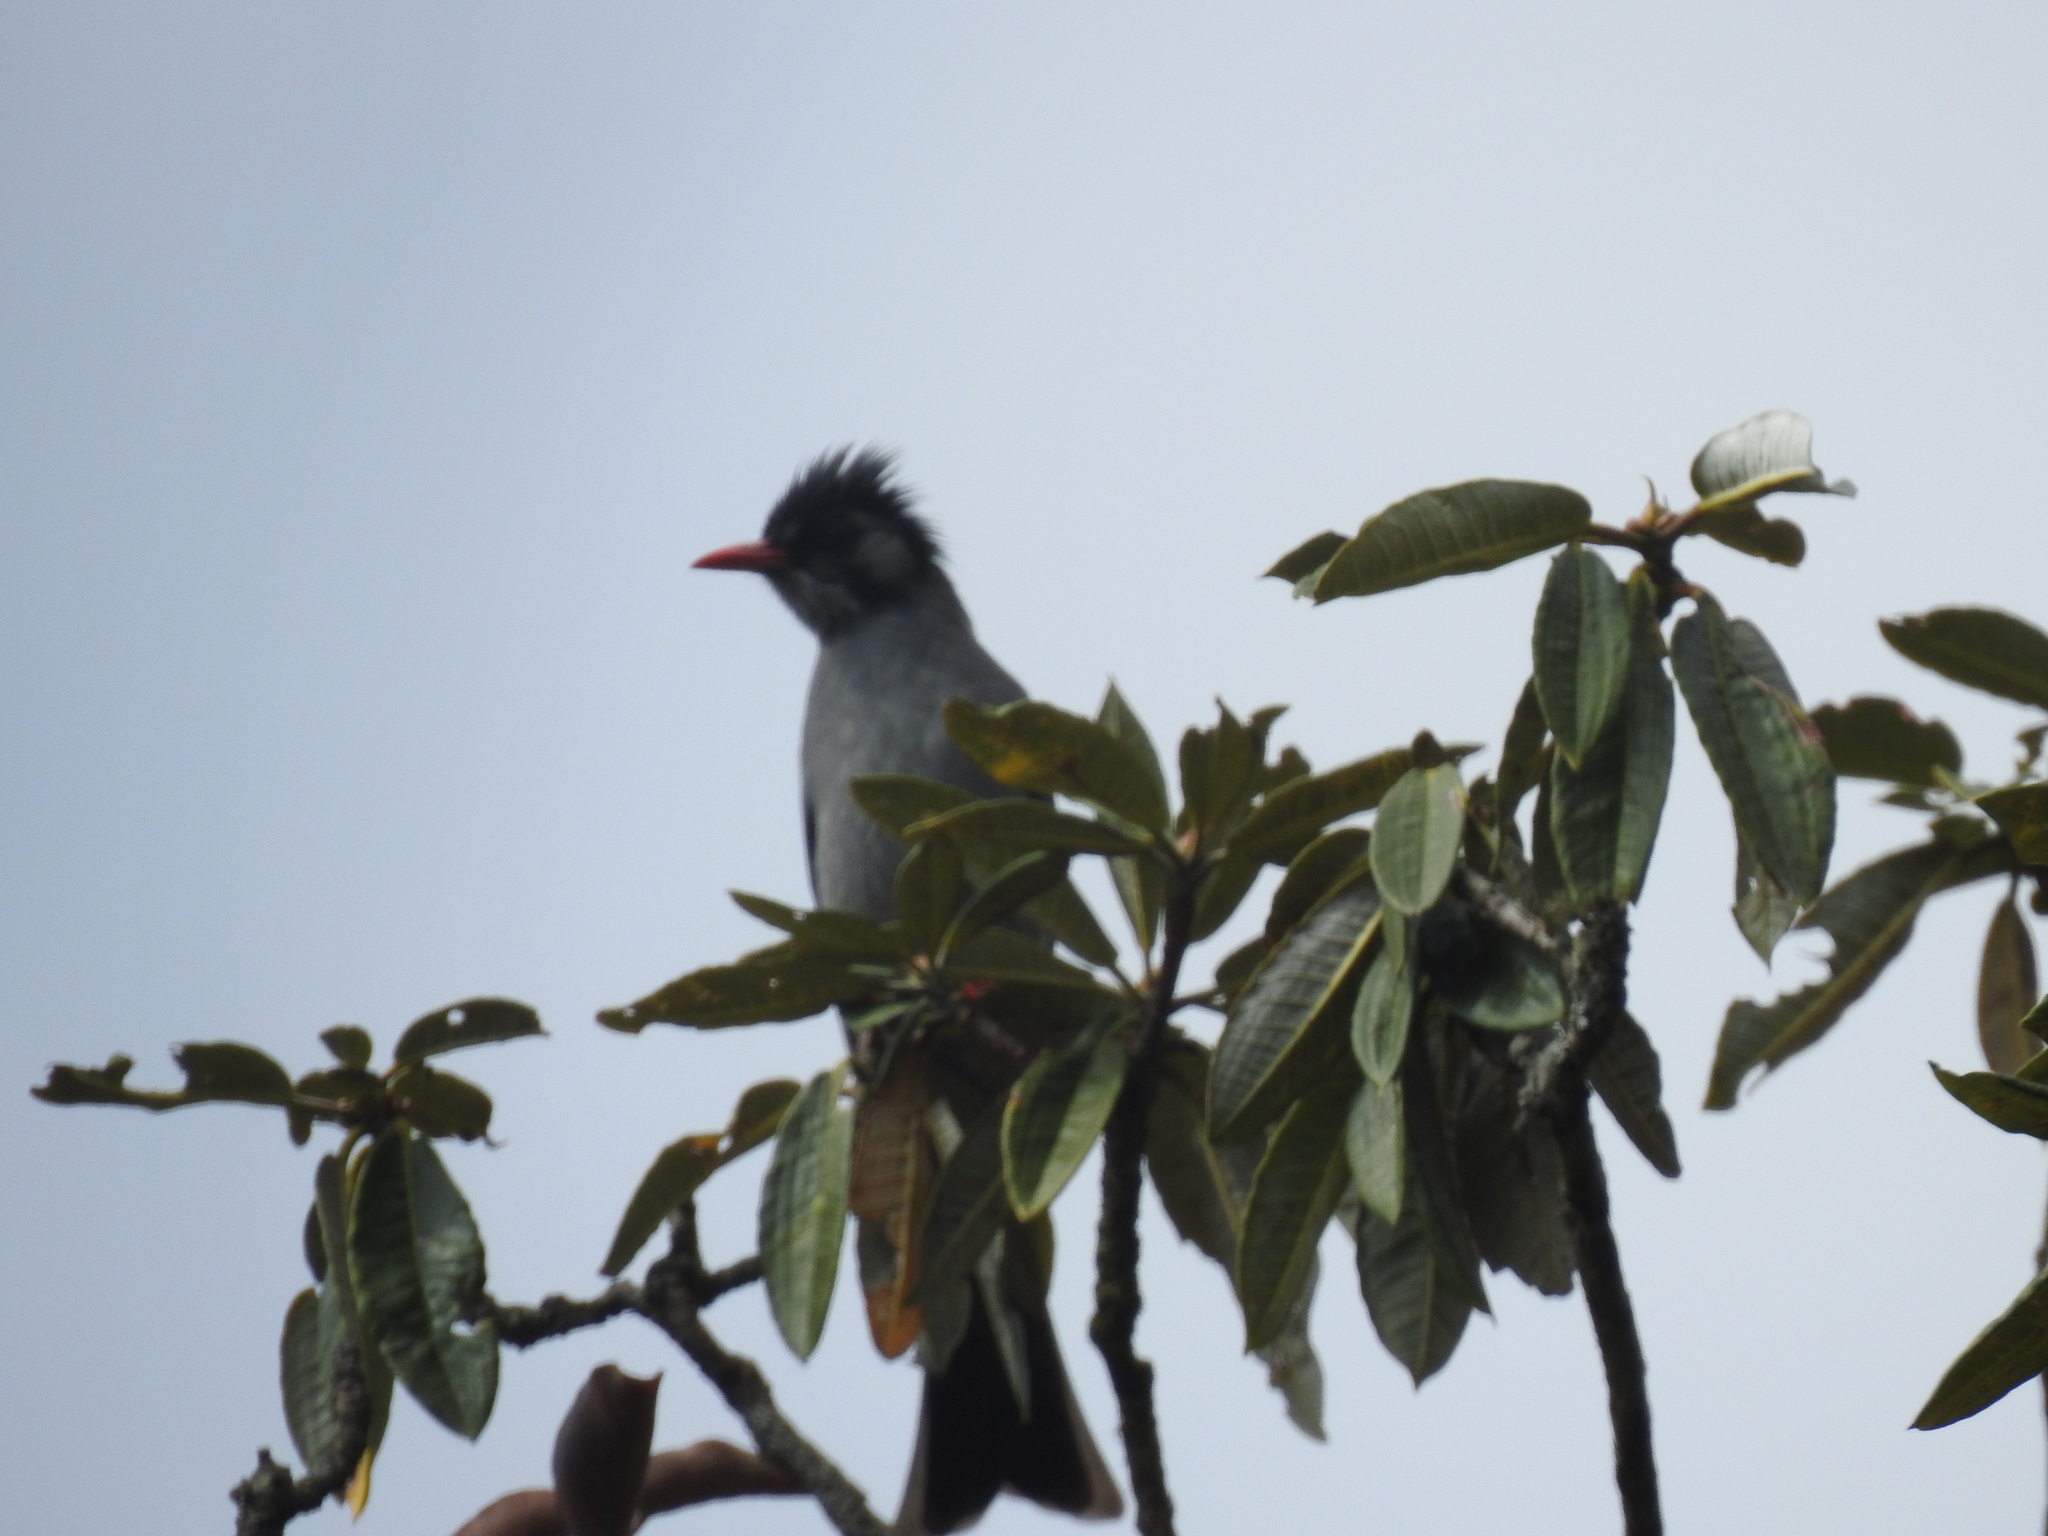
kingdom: Animalia
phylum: Chordata
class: Aves
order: Passeriformes
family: Pycnonotidae
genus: Hypsipetes
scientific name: Hypsipetes leucocephalus
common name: Black bulbul
